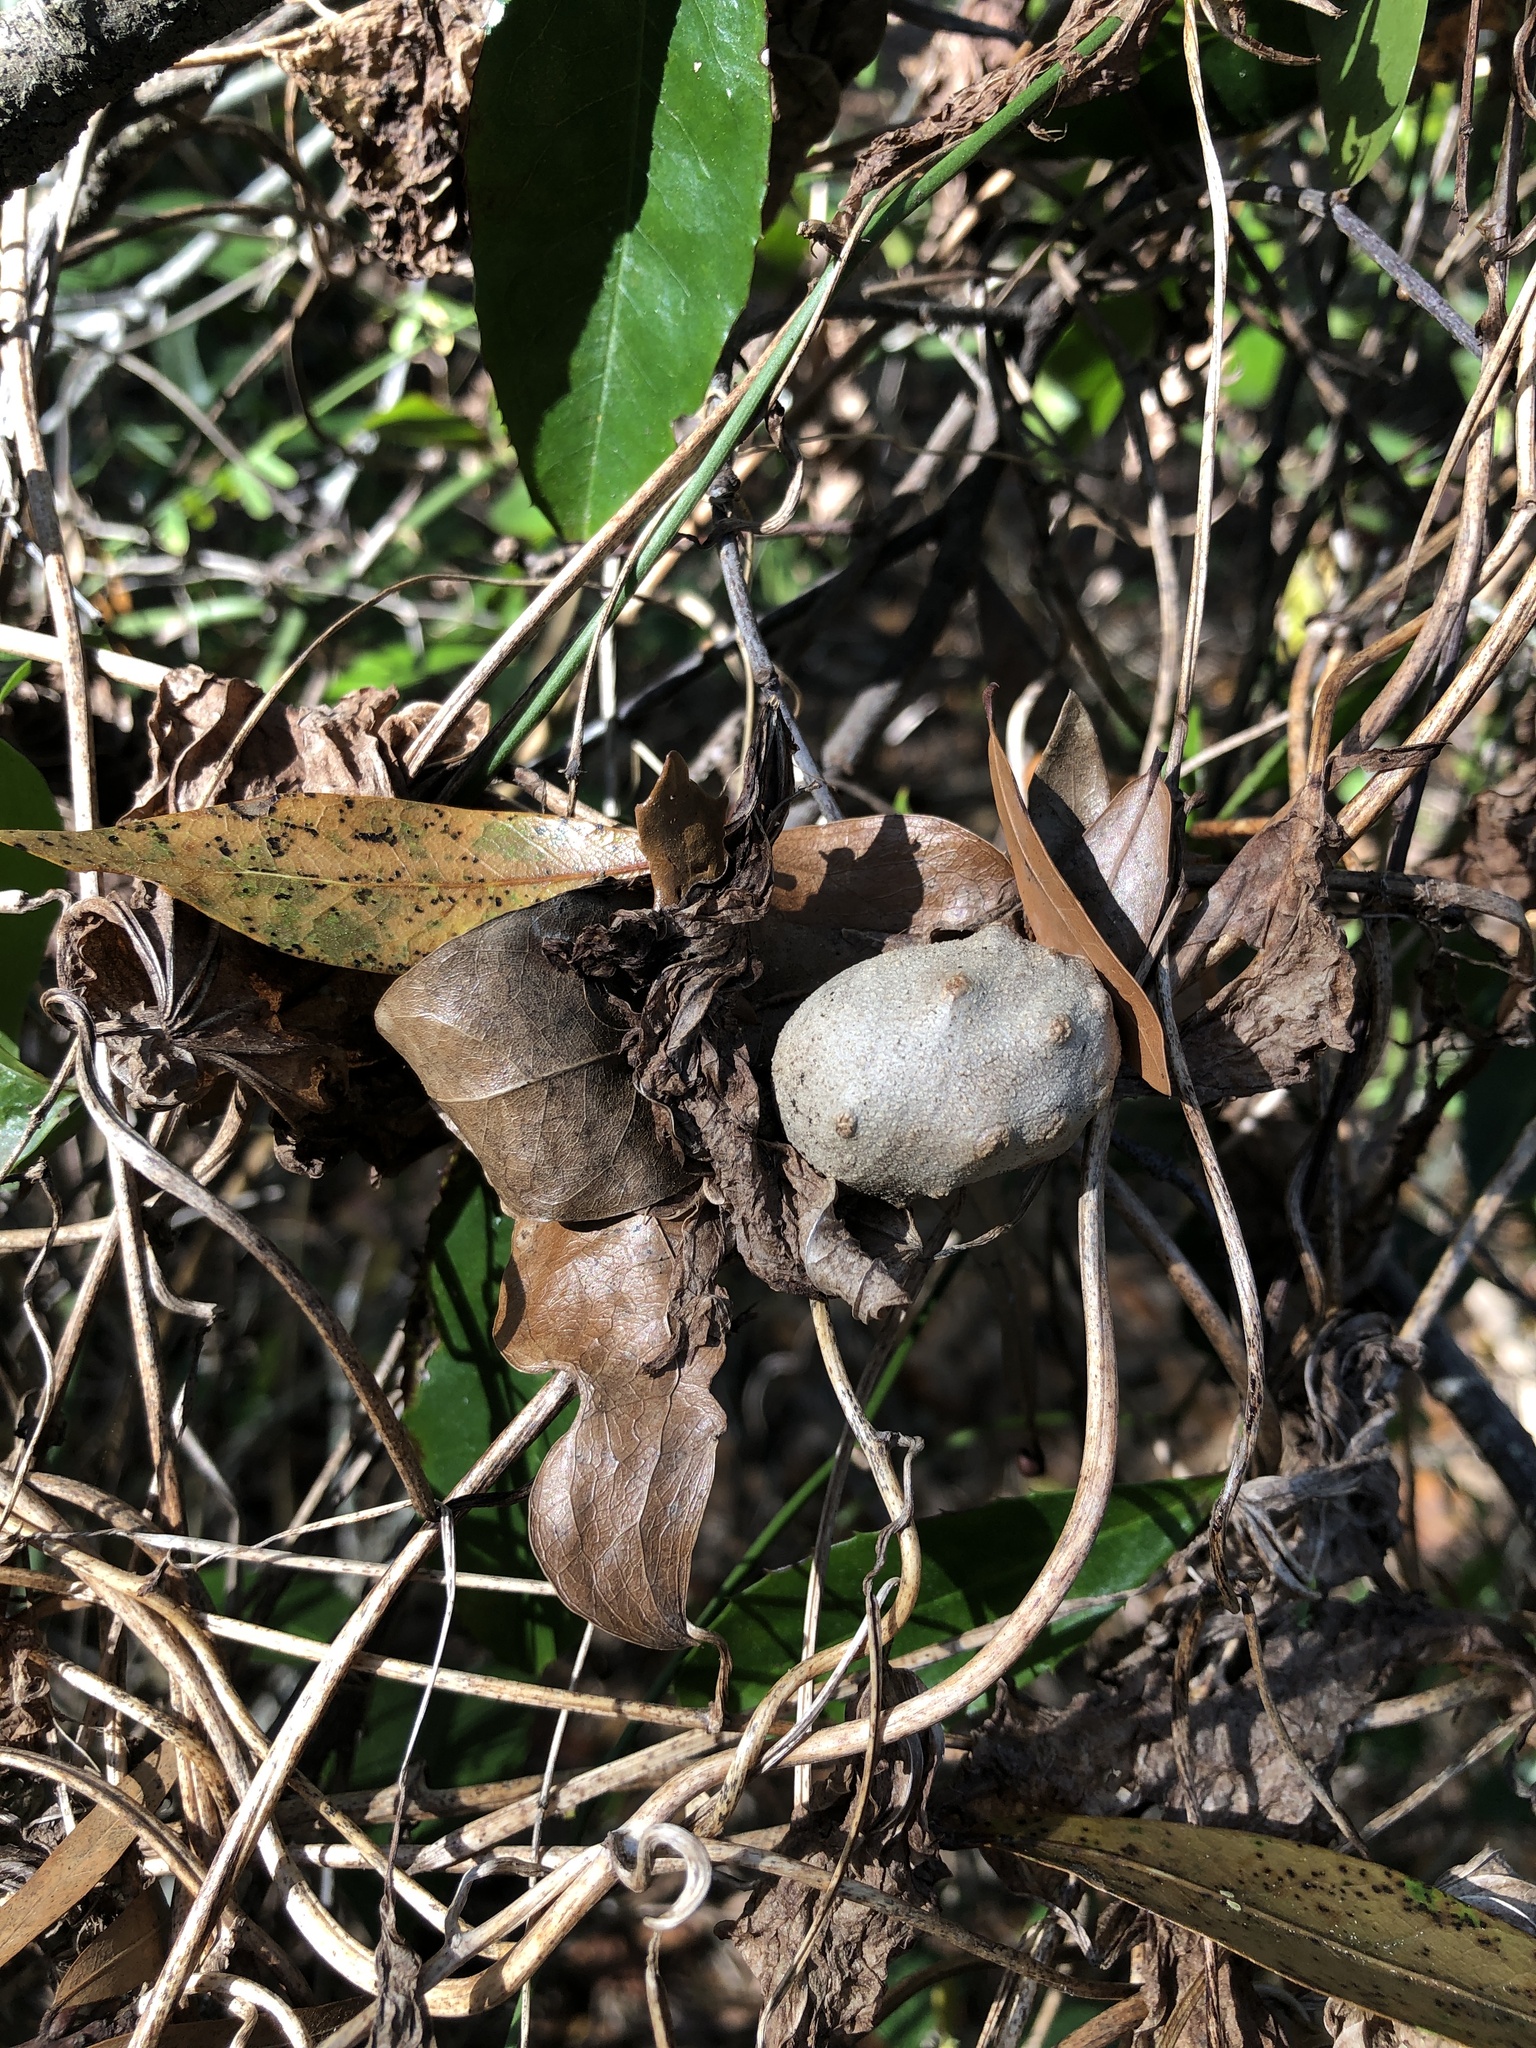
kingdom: Plantae
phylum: Tracheophyta
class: Liliopsida
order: Dioscoreales
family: Dioscoreaceae
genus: Dioscorea
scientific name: Dioscorea bulbifera
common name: Air yam
